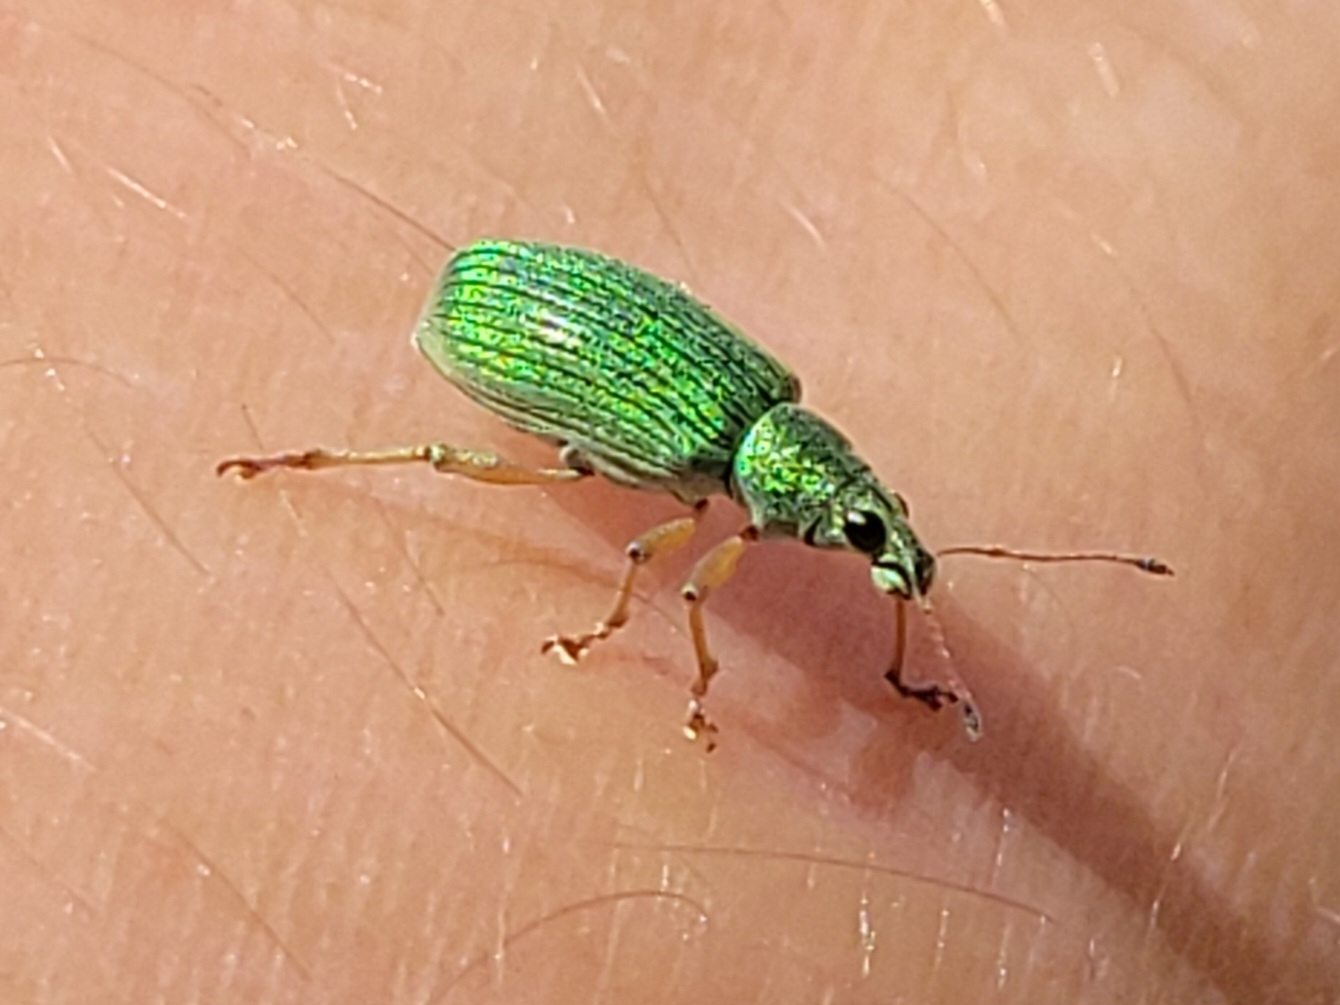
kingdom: Animalia
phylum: Arthropoda
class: Insecta
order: Coleoptera
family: Curculionidae
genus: Polydrusus
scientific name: Polydrusus formosus
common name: Weevil
